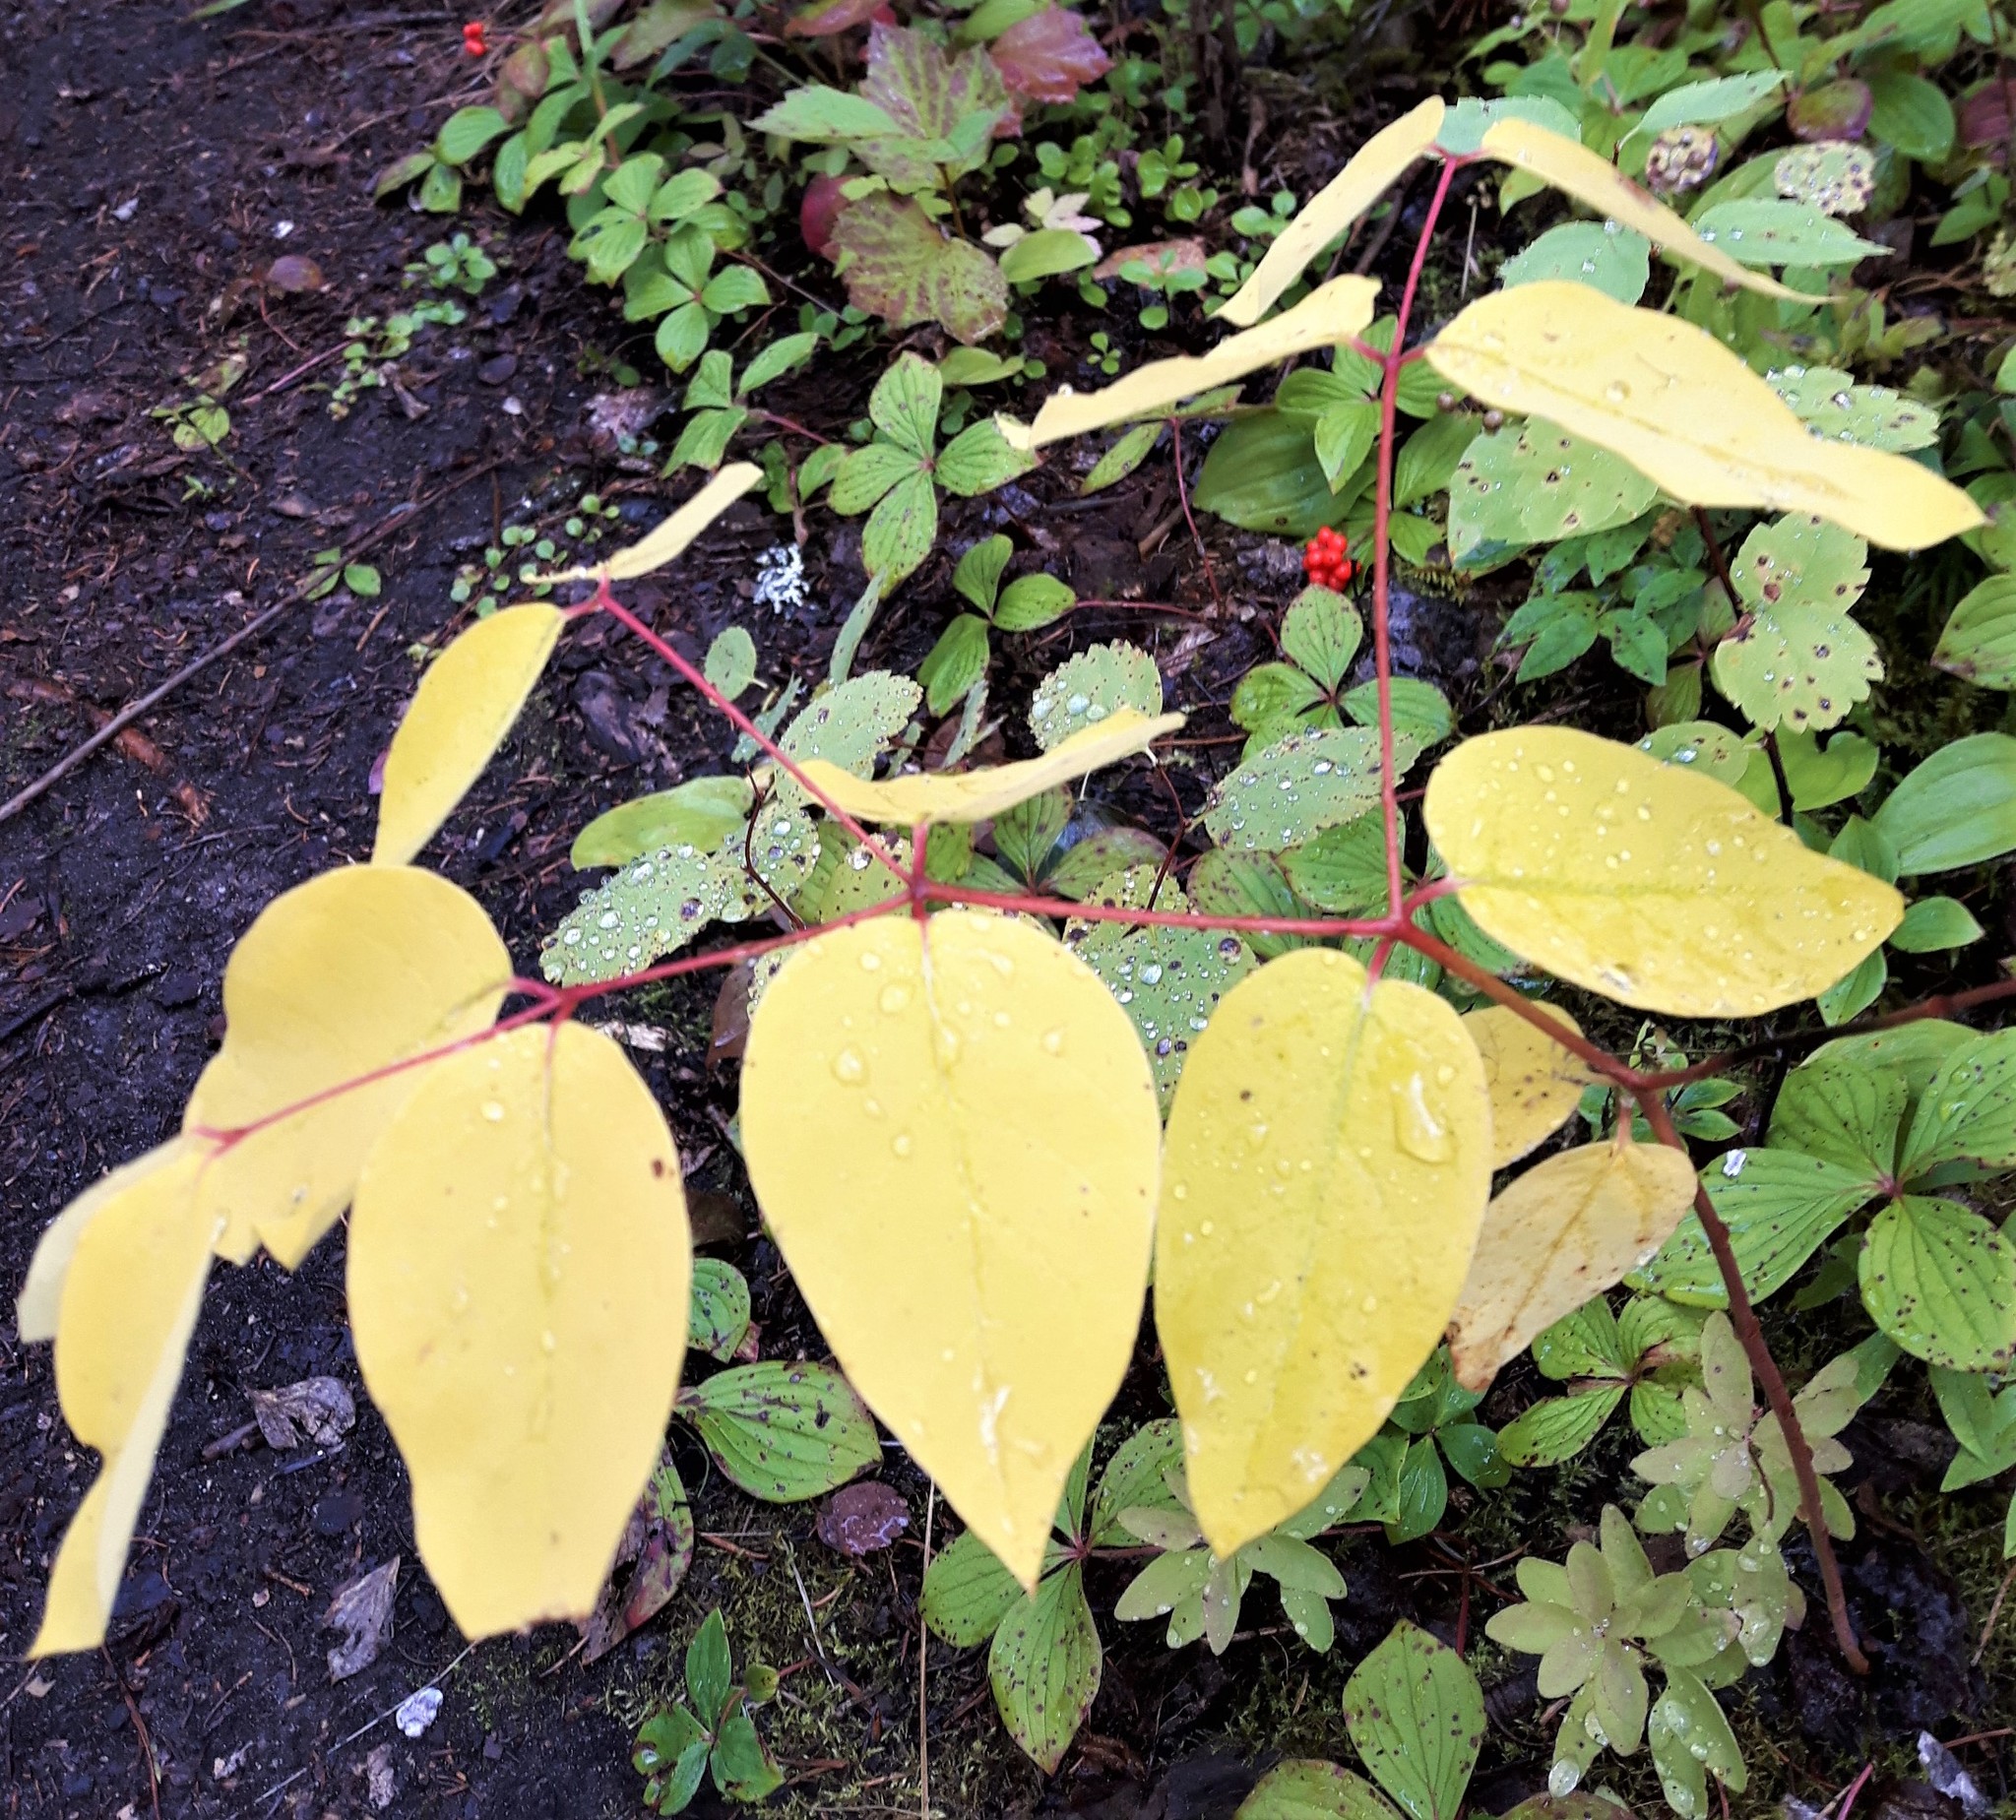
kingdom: Plantae
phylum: Tracheophyta
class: Magnoliopsida
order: Gentianales
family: Apocynaceae
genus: Apocynum
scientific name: Apocynum androsaemifolium
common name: Spreading dogbane
